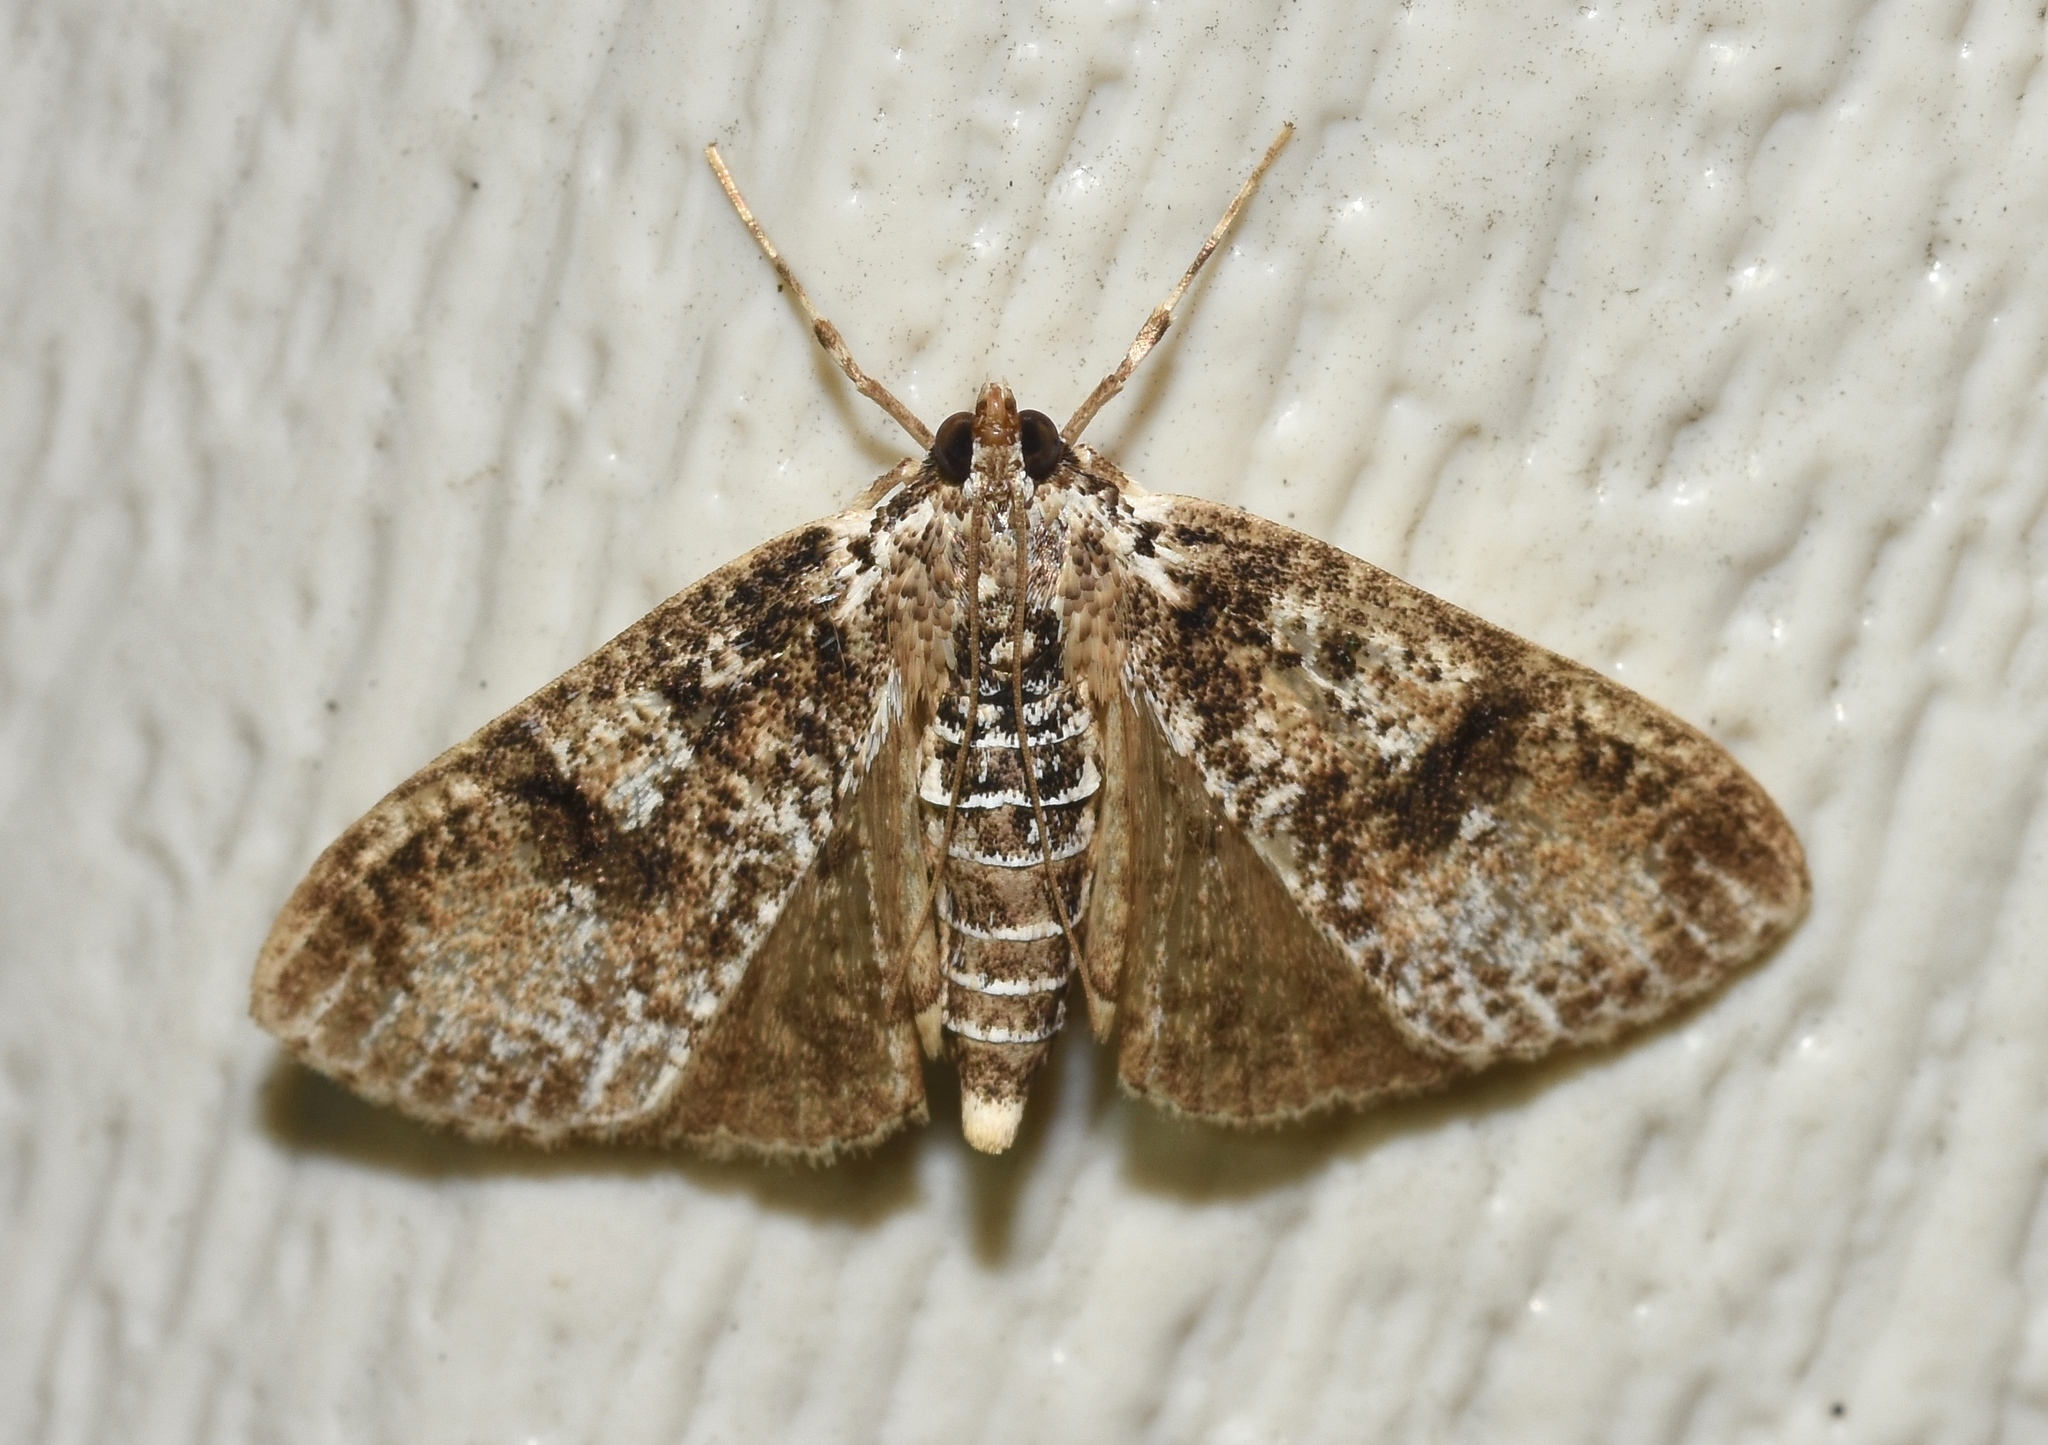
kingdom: Animalia
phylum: Arthropoda
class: Insecta
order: Lepidoptera
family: Crambidae
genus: Palpita
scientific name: Palpita magniferalis
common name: Splendid palpita moth
